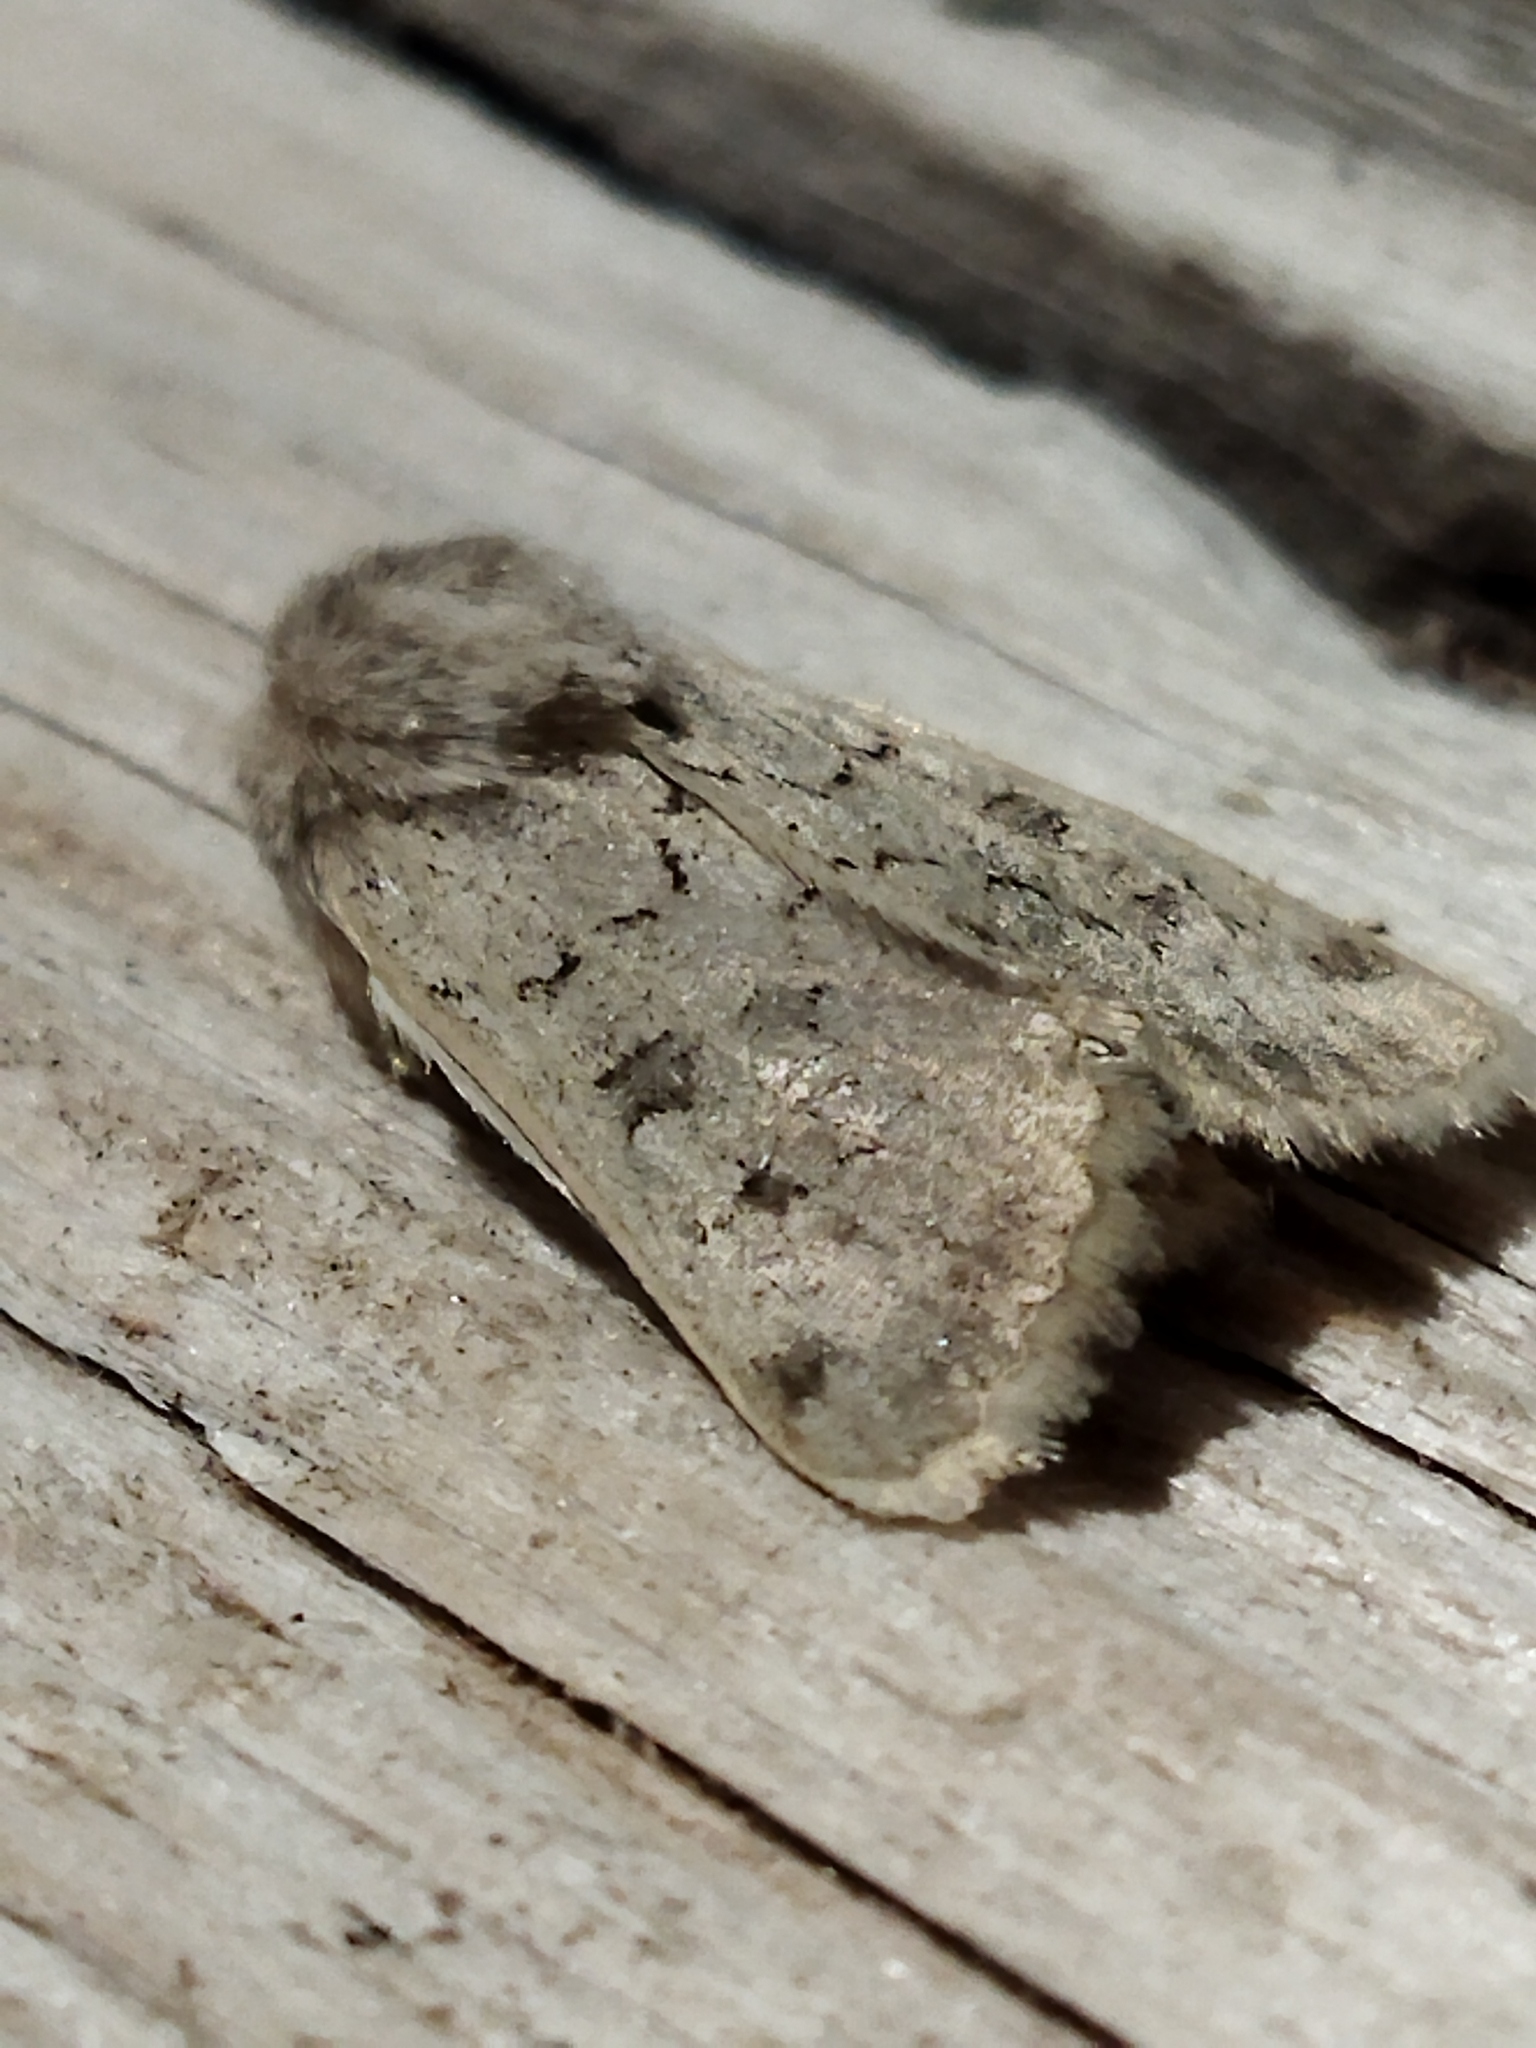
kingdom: Animalia
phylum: Arthropoda
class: Insecta
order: Lepidoptera
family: Noctuidae
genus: Episema
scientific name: Episema lederi
